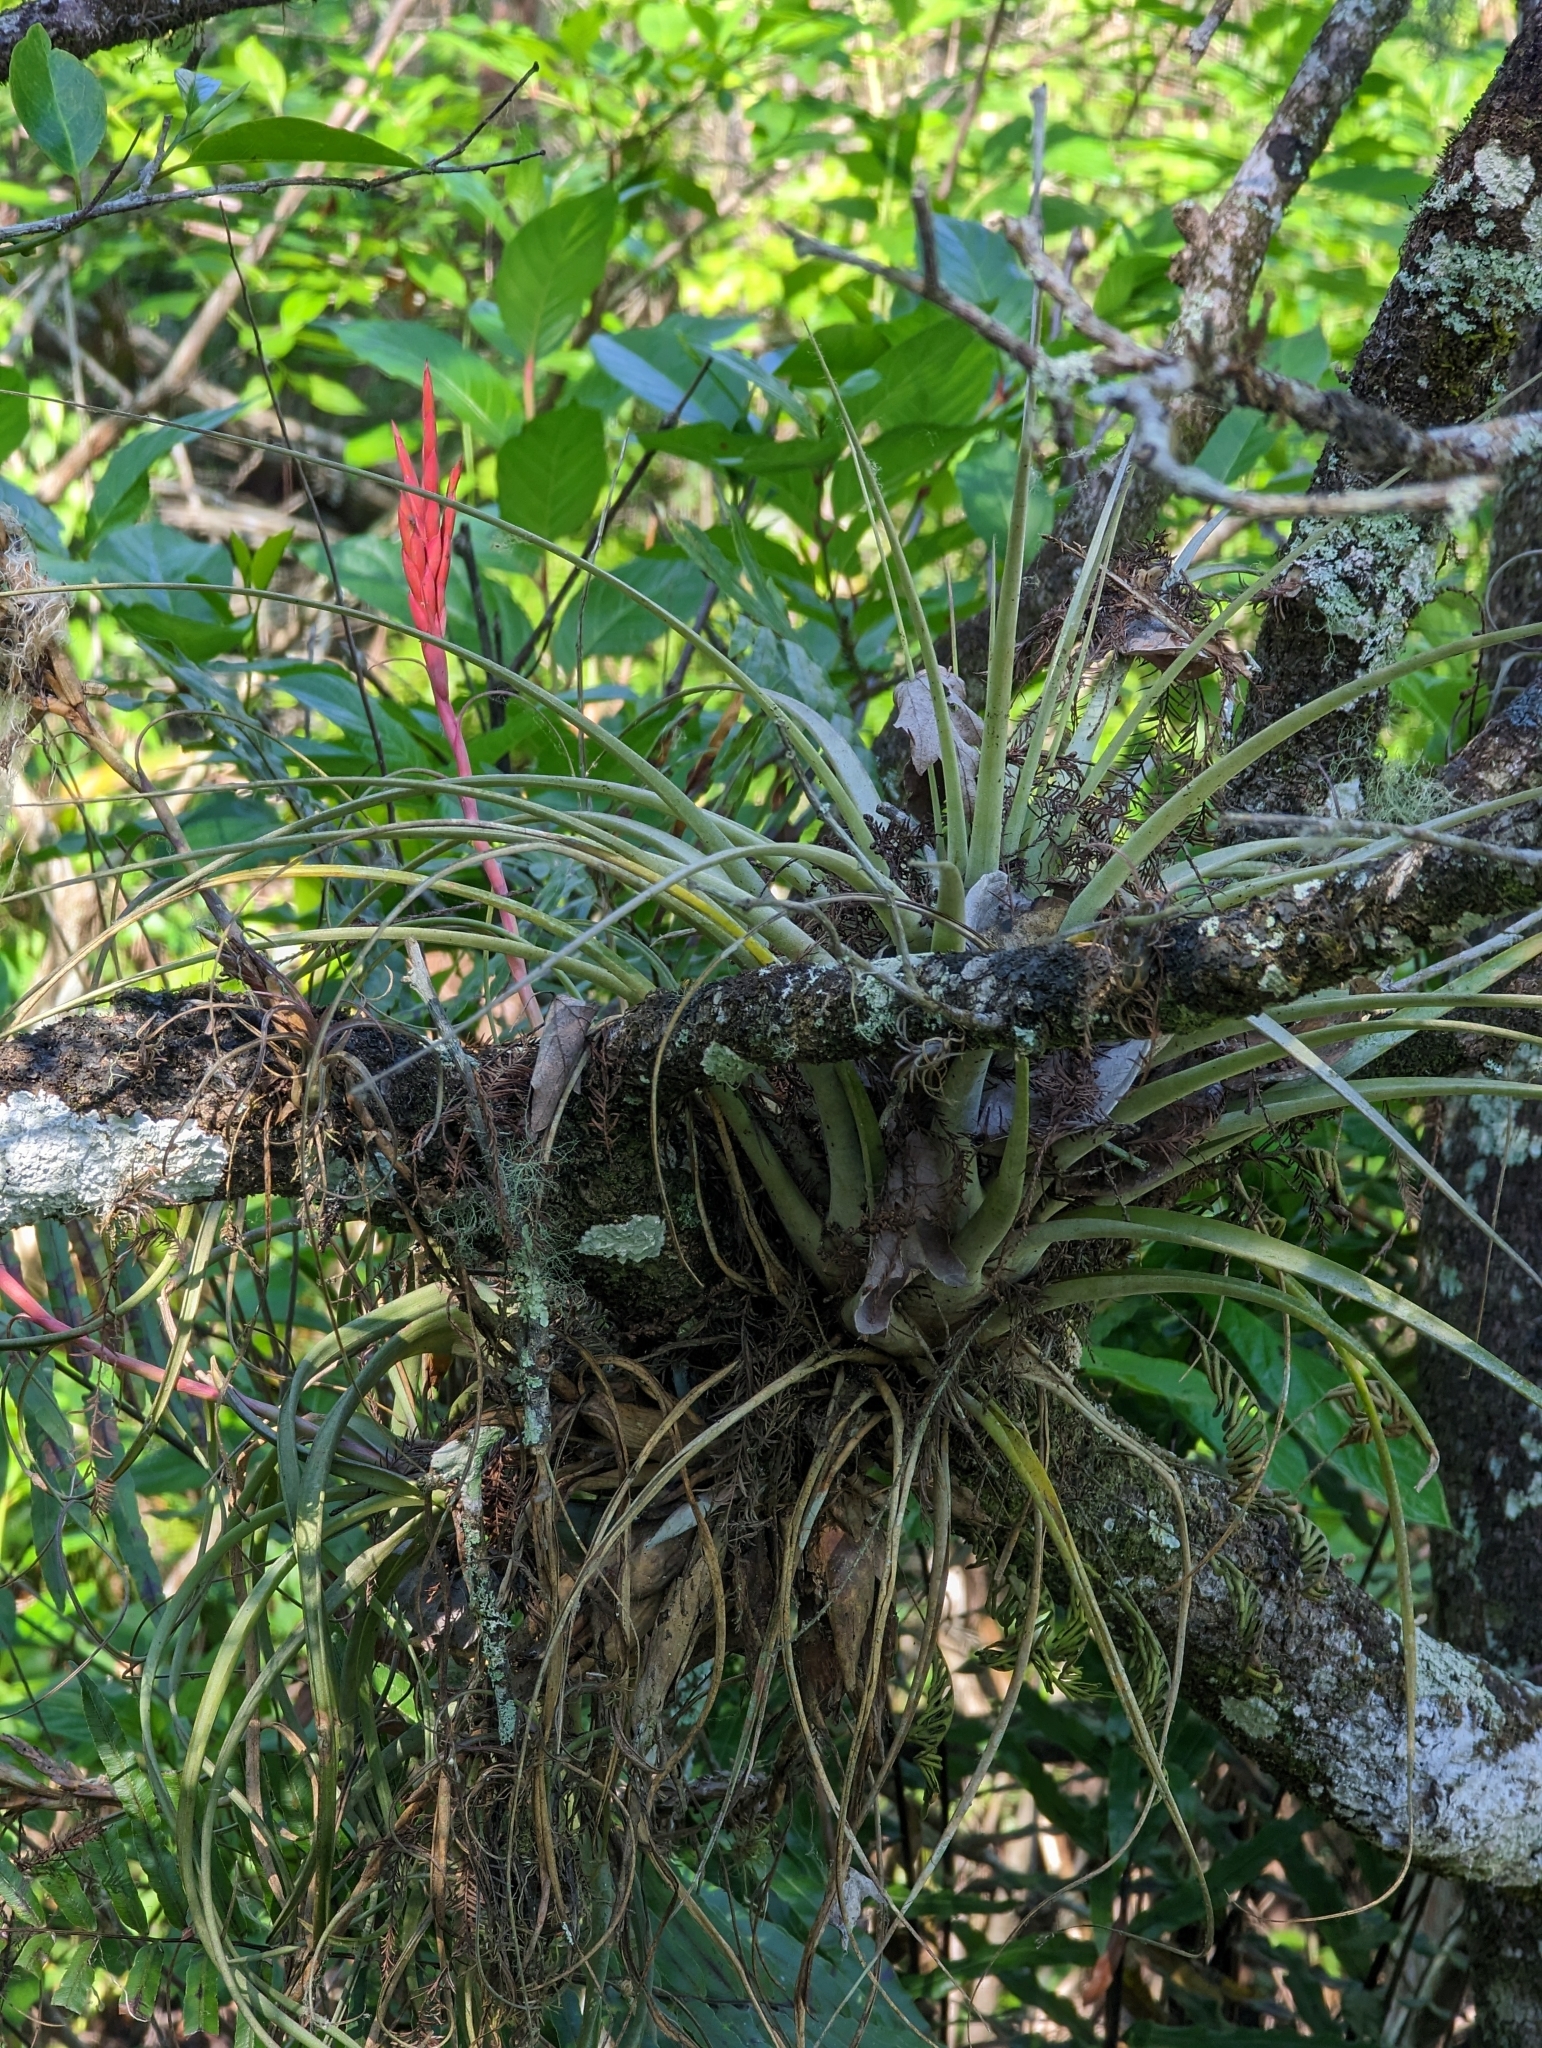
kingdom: Plantae
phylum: Tracheophyta
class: Liliopsida
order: Poales
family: Bromeliaceae
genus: Tillandsia
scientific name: Tillandsia fasciculata
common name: Giant airplant
